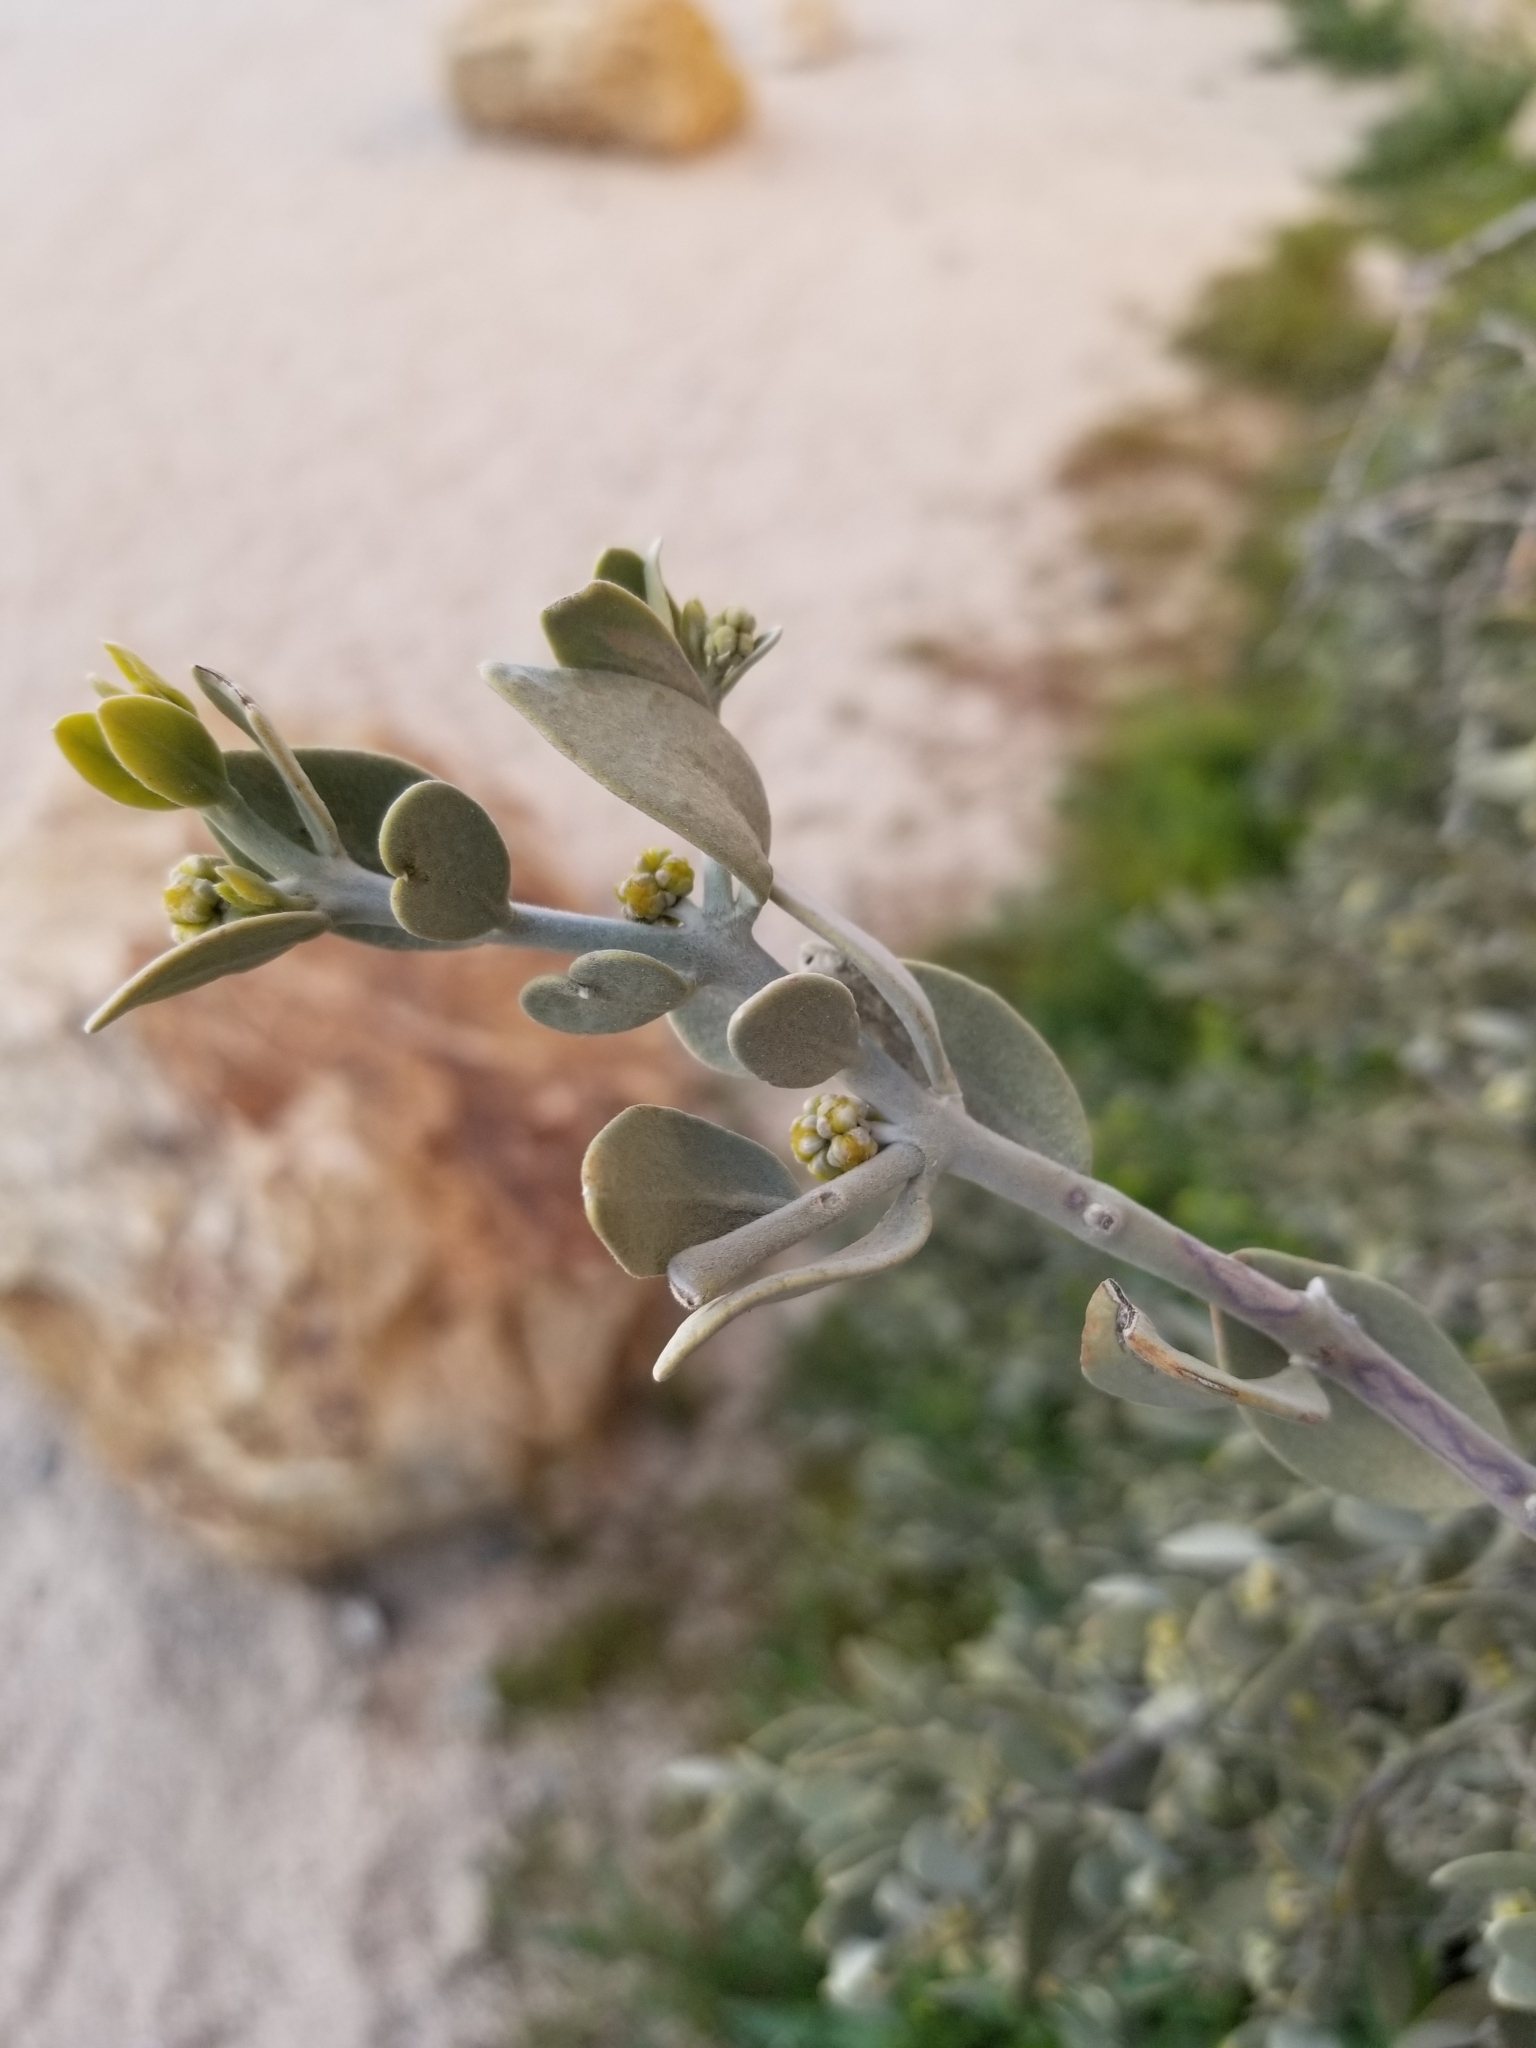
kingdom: Plantae
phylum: Tracheophyta
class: Magnoliopsida
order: Caryophyllales
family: Simmondsiaceae
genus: Simmondsia
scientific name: Simmondsia chinensis
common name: Jojoba
